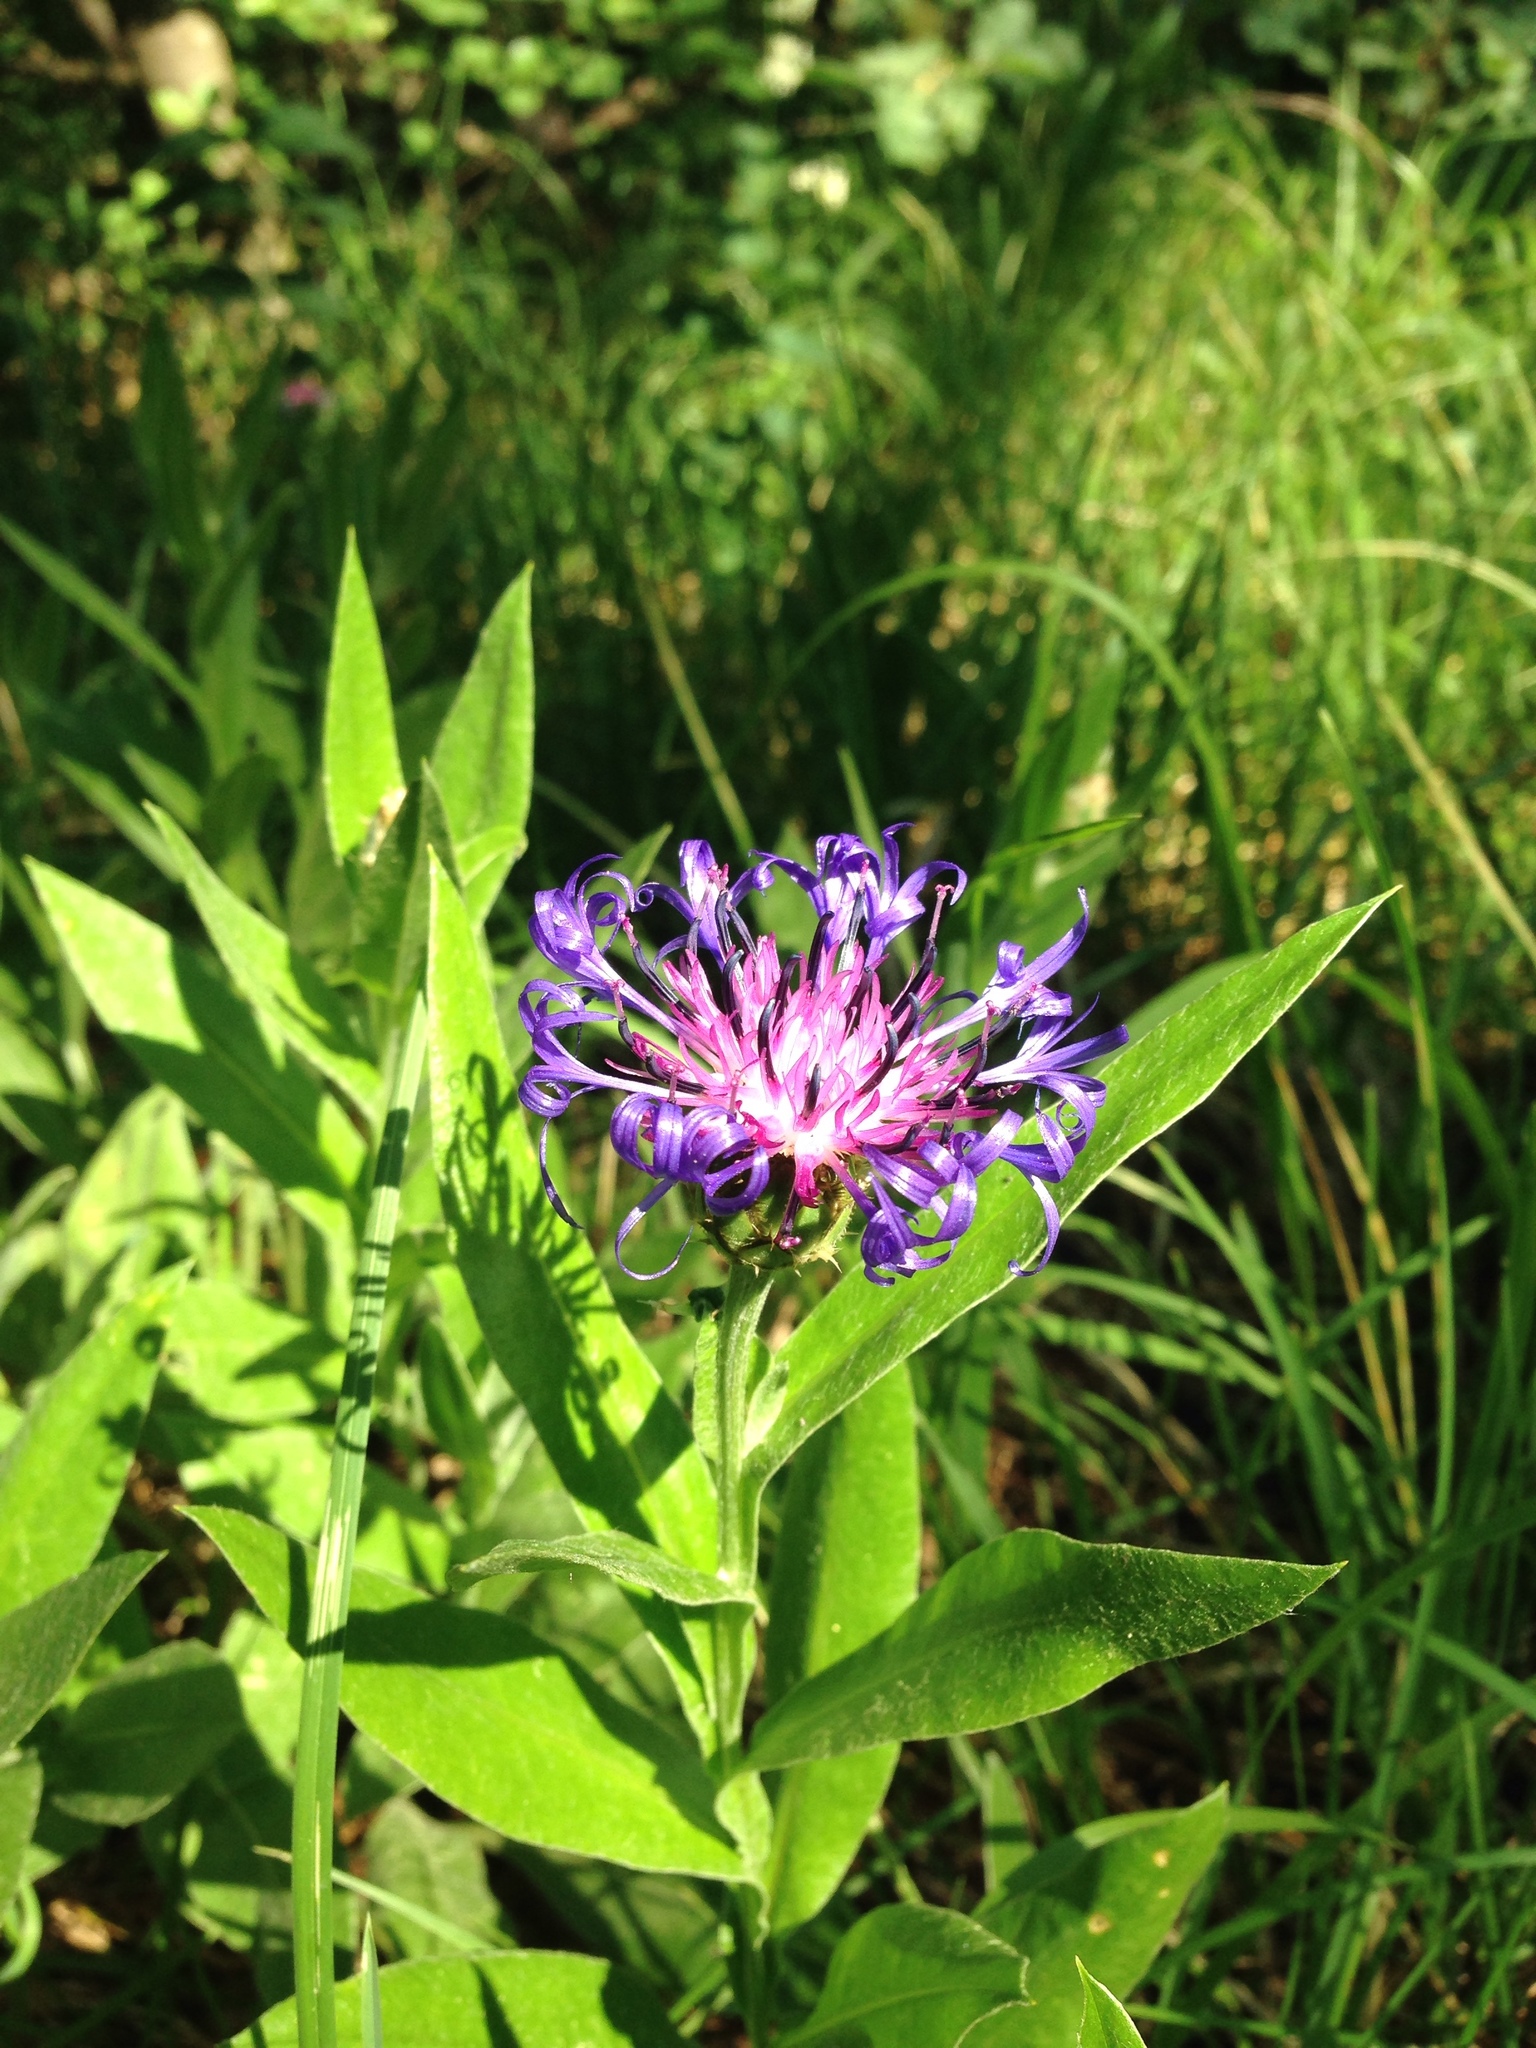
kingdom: Plantae
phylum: Tracheophyta
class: Magnoliopsida
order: Asterales
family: Asteraceae
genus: Centaurea
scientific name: Centaurea montana
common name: Perennial cornflower
